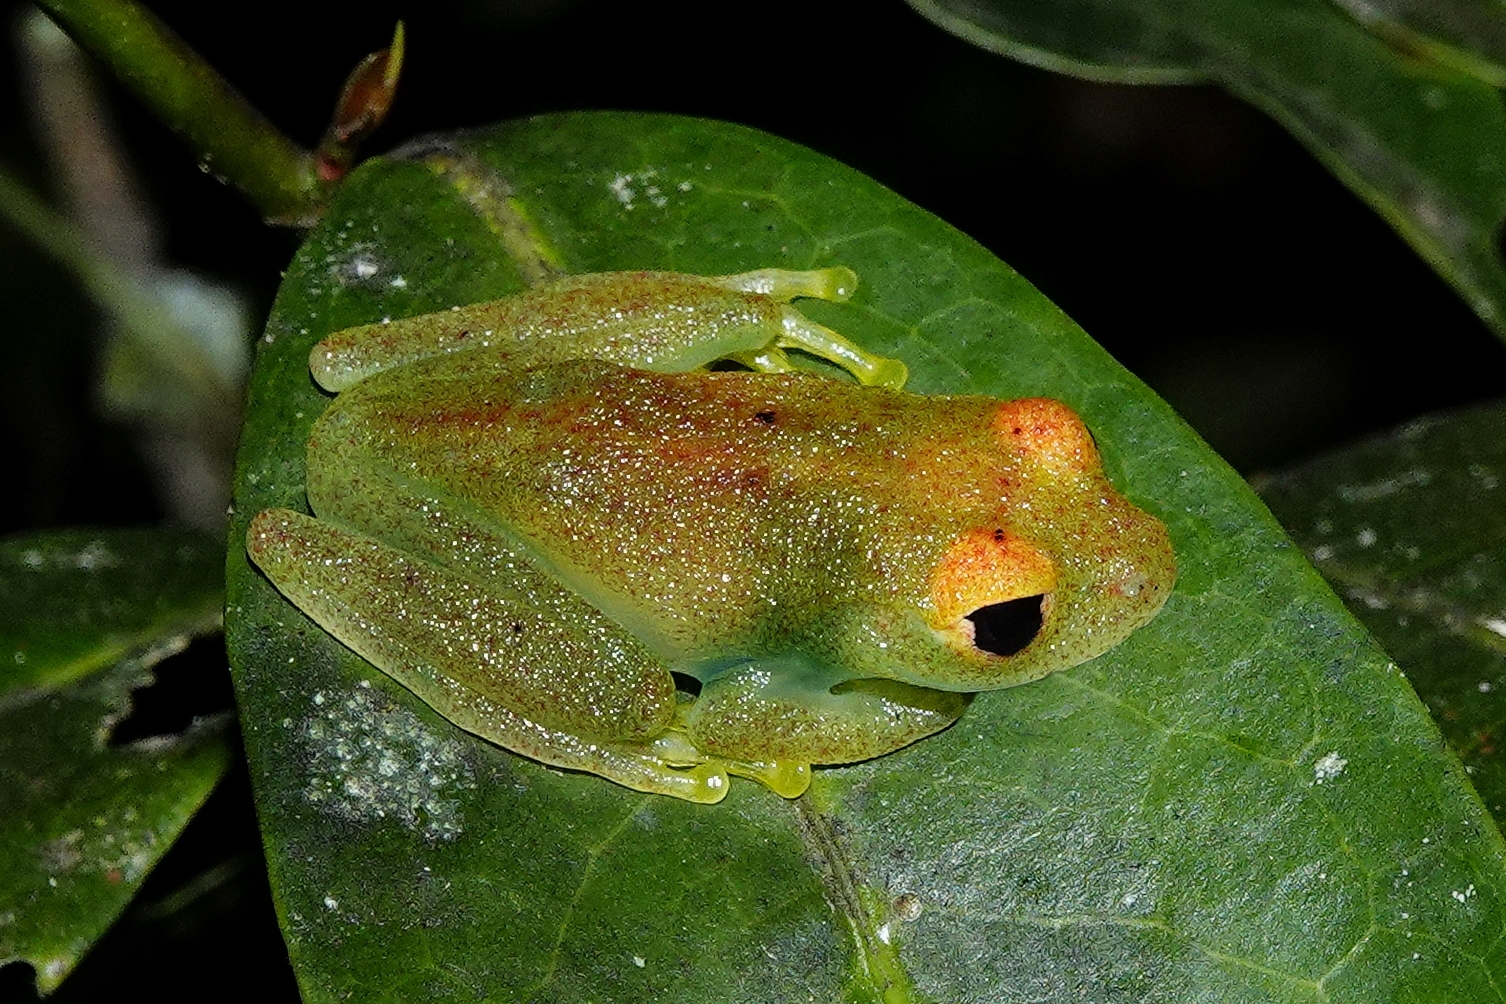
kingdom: Animalia
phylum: Chordata
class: Amphibia
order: Anura
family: Mantellidae
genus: Boophis
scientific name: Boophis viridis
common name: Green bright-eyed frog
